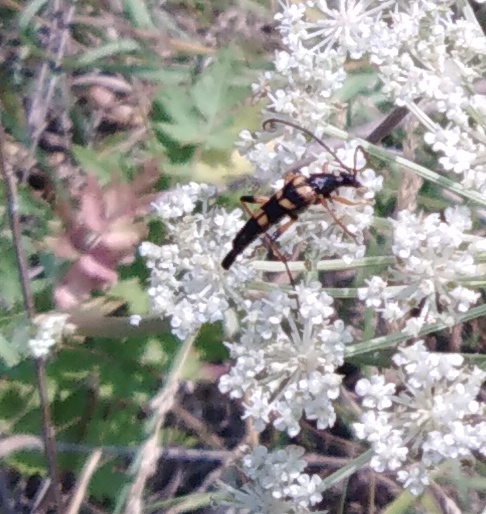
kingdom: Animalia
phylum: Arthropoda
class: Insecta
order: Coleoptera
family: Cerambycidae
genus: Strangalia
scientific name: Strangalia attenuata
